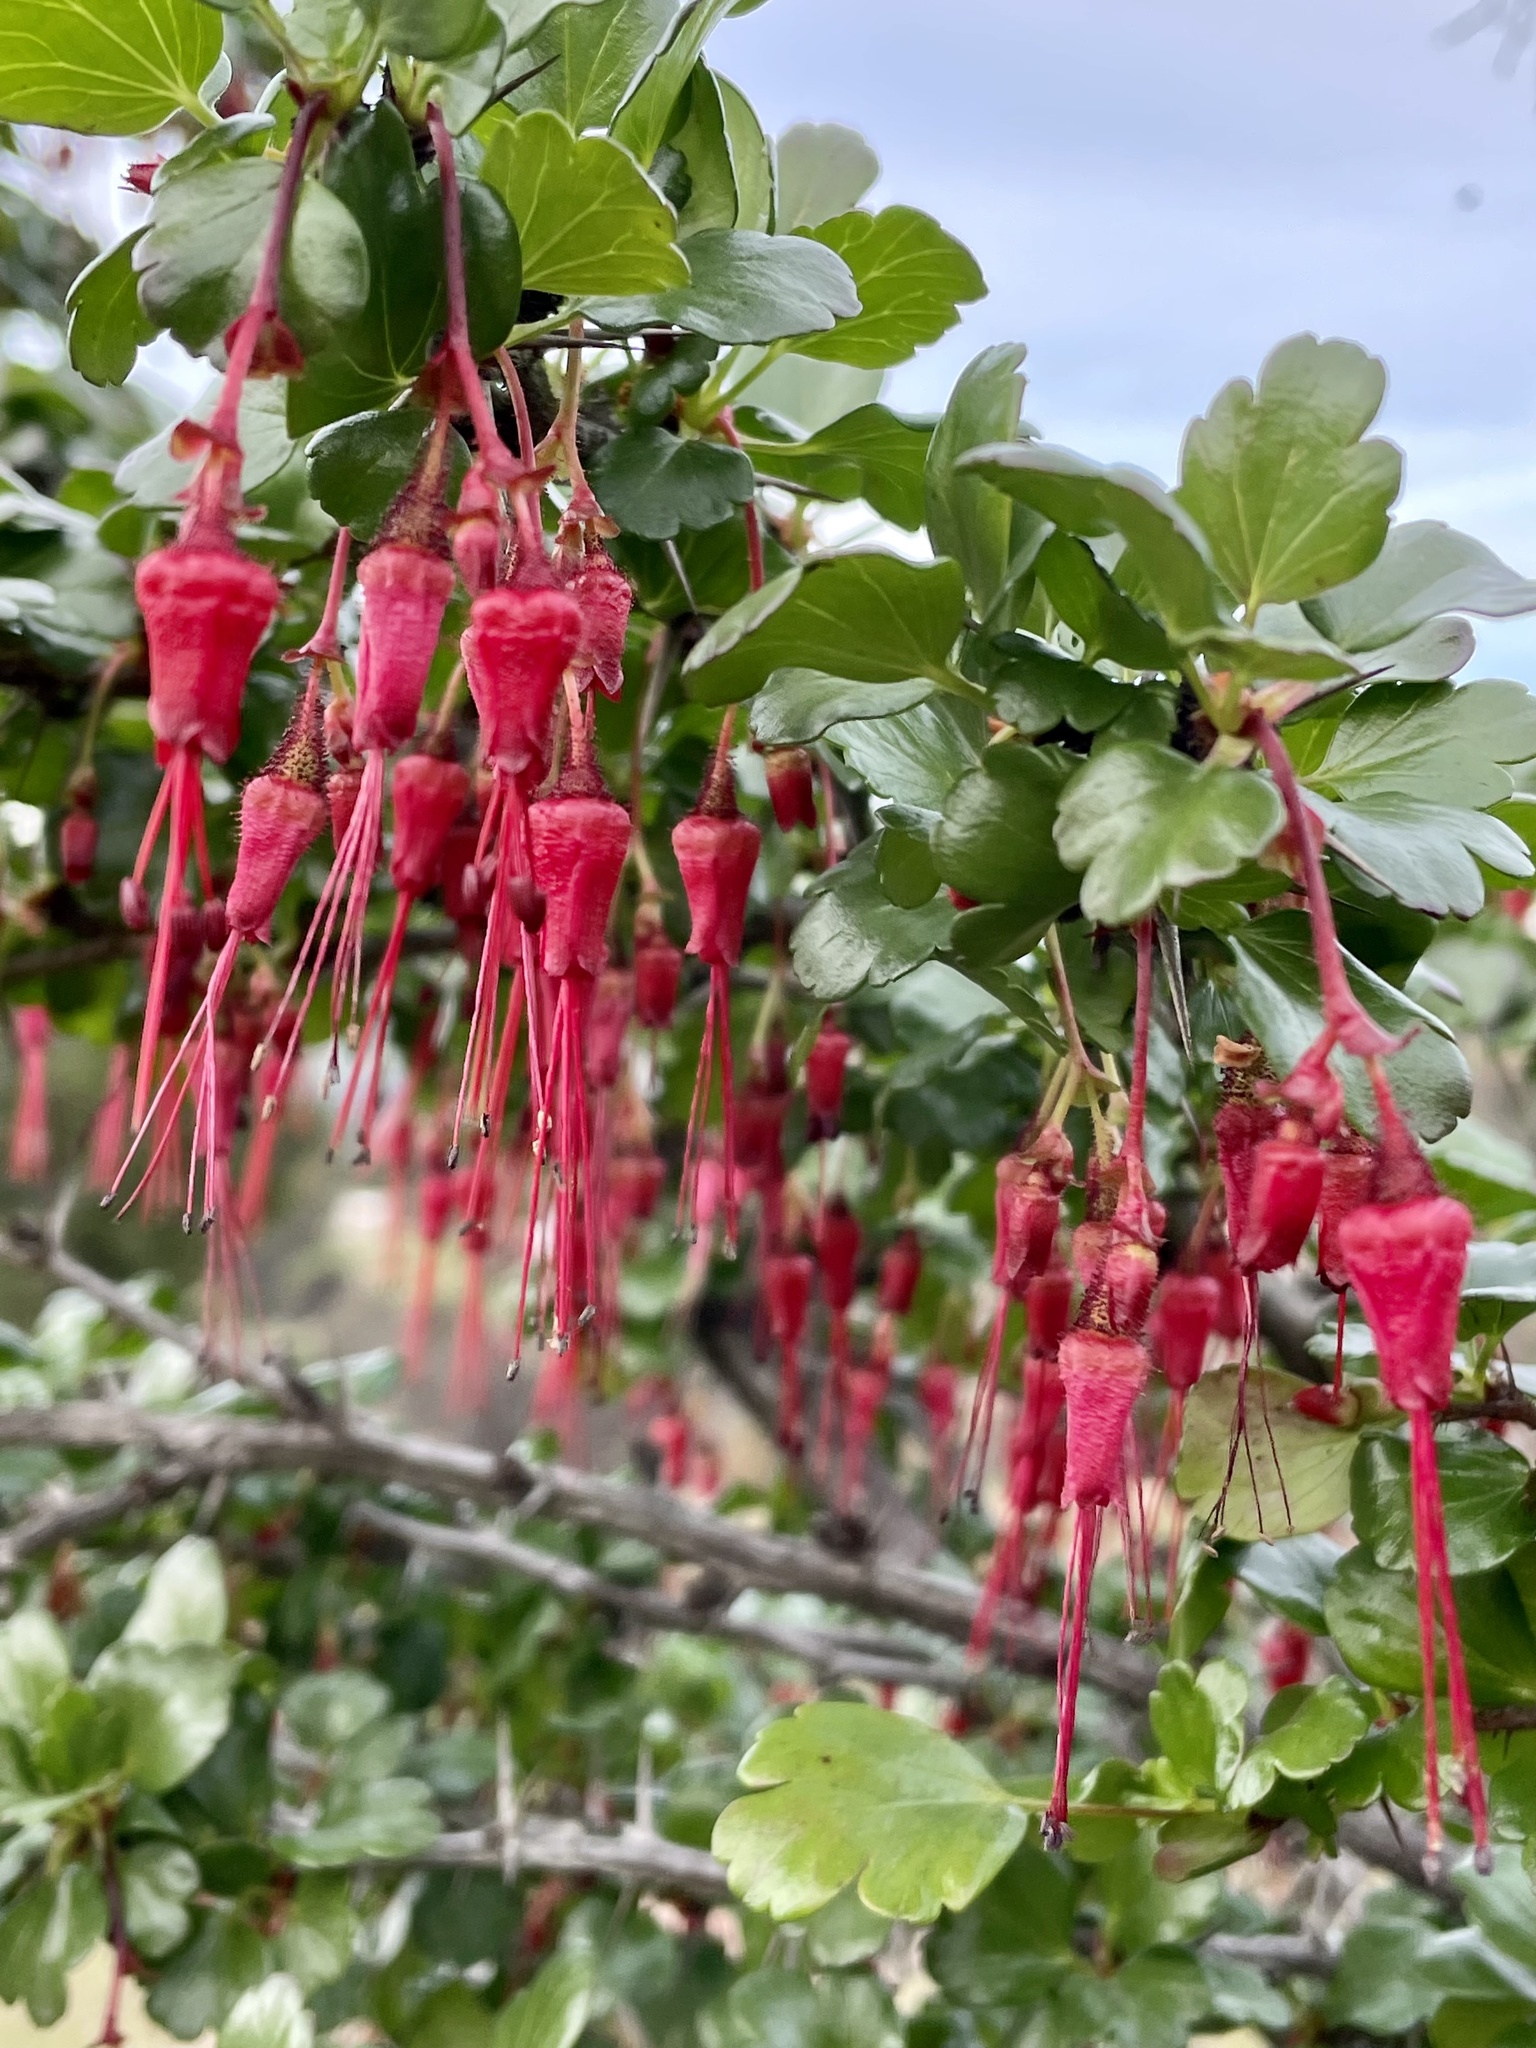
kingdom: Plantae
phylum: Tracheophyta
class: Magnoliopsida
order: Saxifragales
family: Grossulariaceae
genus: Ribes
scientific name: Ribes speciosum
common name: Fuchsia-flower gooseberry
